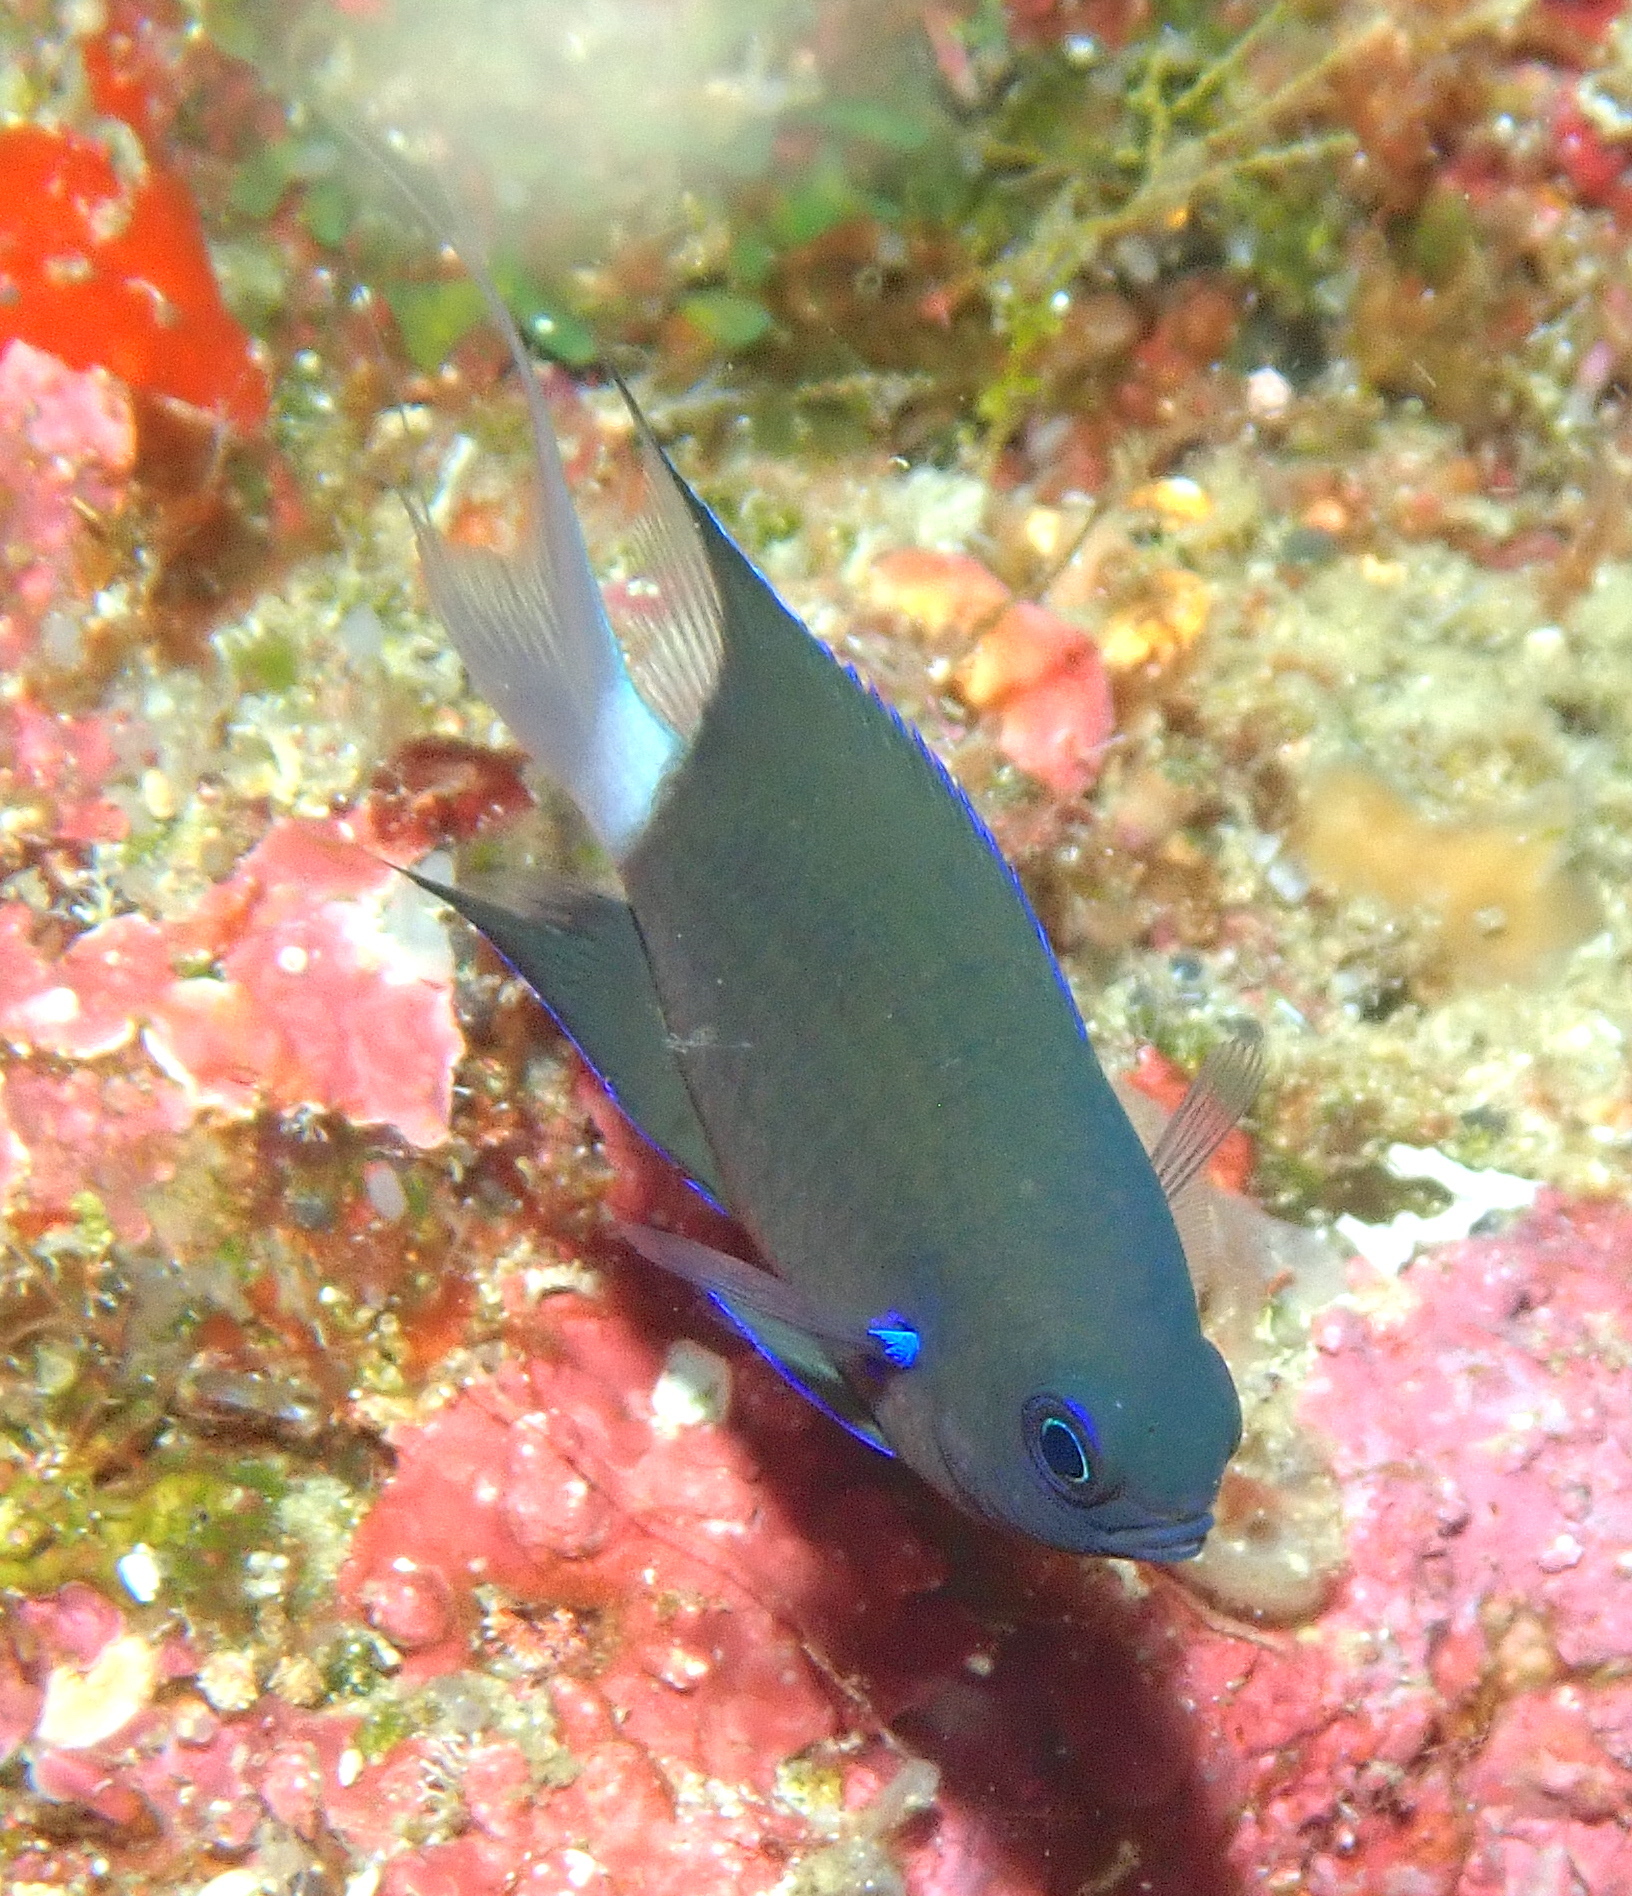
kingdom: Animalia
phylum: Chordata
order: Perciformes
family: Pomacentridae
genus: Chromis
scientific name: Chromis caudalis
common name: Blue-axil chromis
